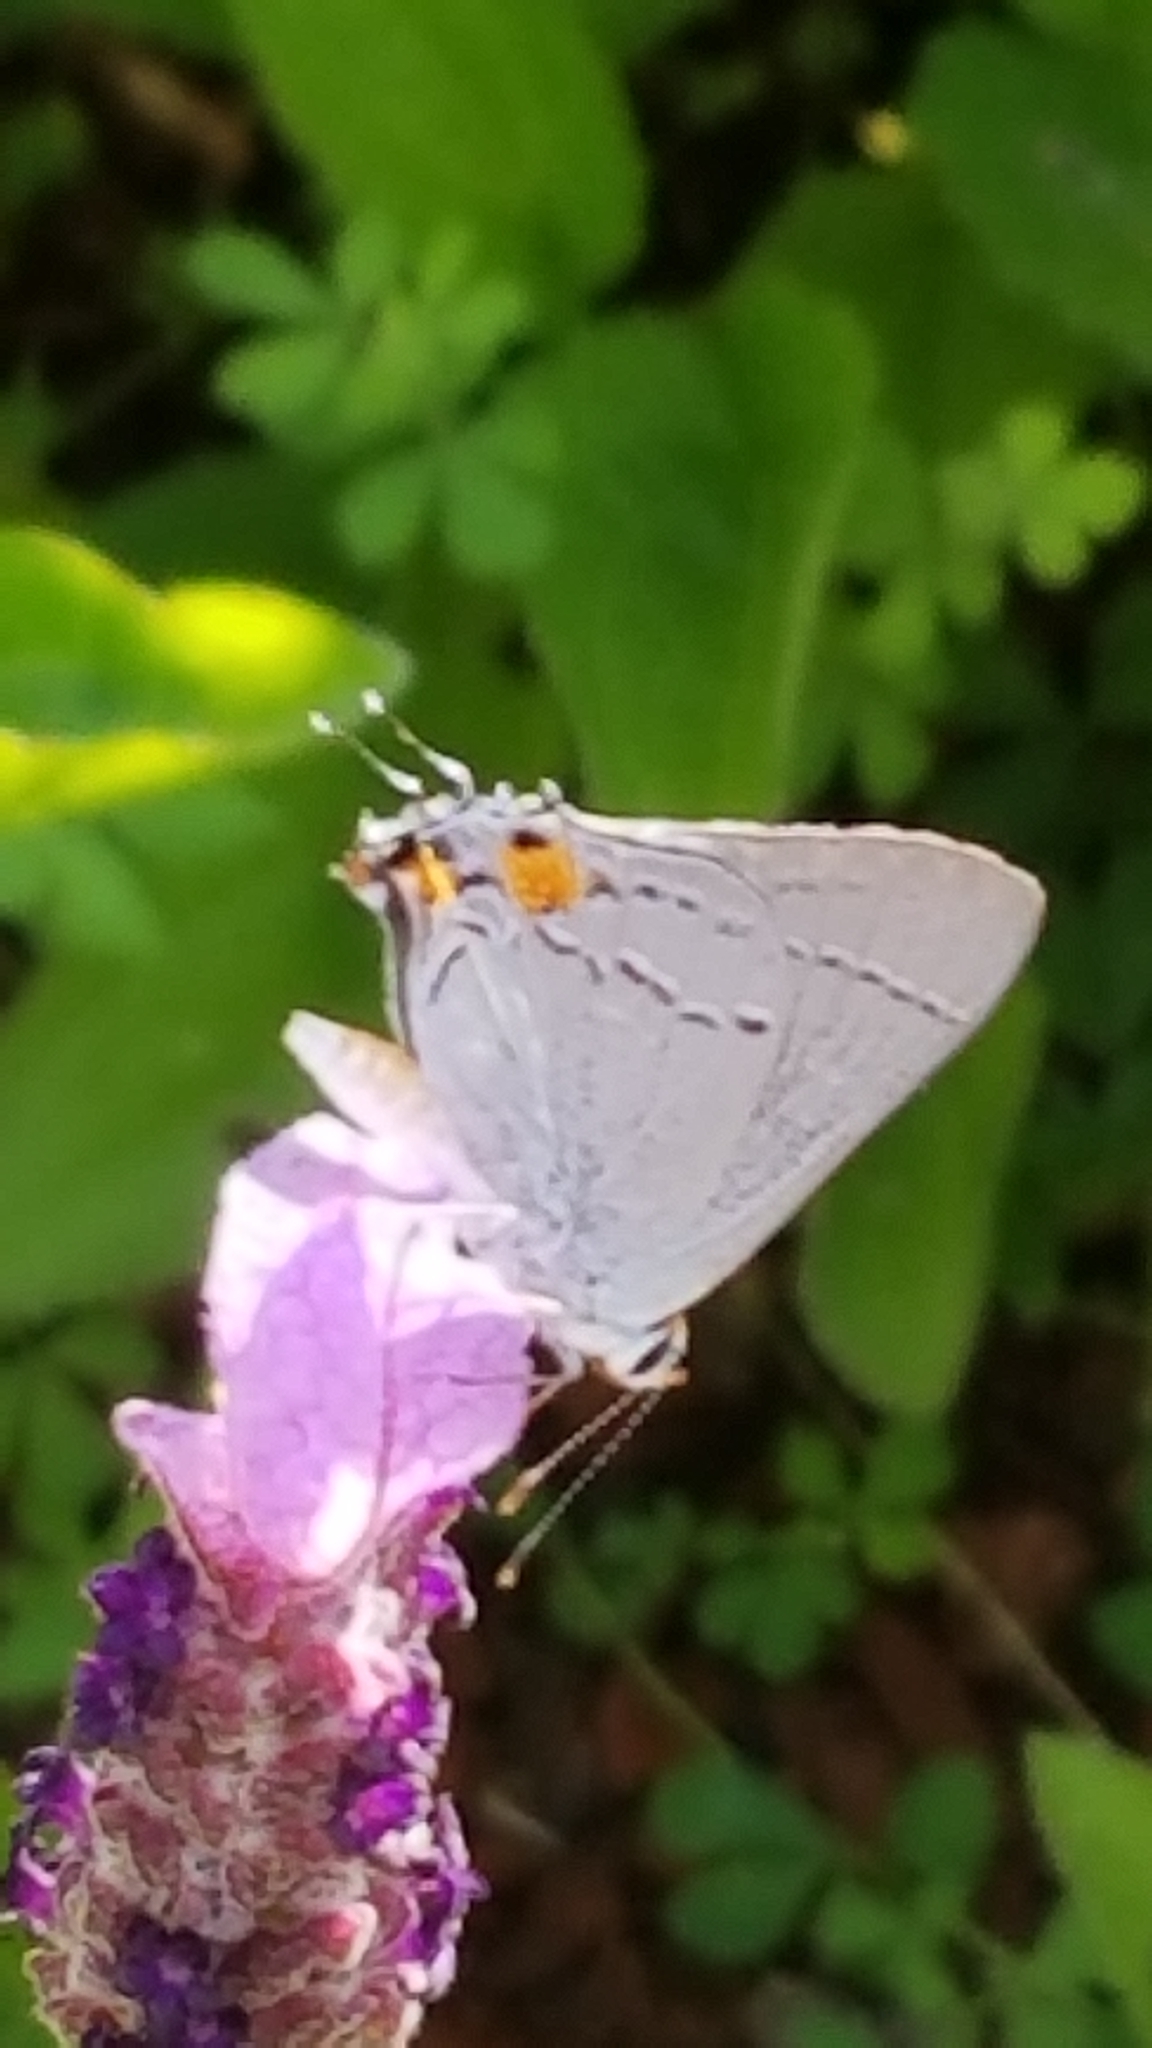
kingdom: Animalia
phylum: Arthropoda
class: Insecta
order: Lepidoptera
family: Lycaenidae
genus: Strymon
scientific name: Strymon melinus
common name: Gray hairstreak
